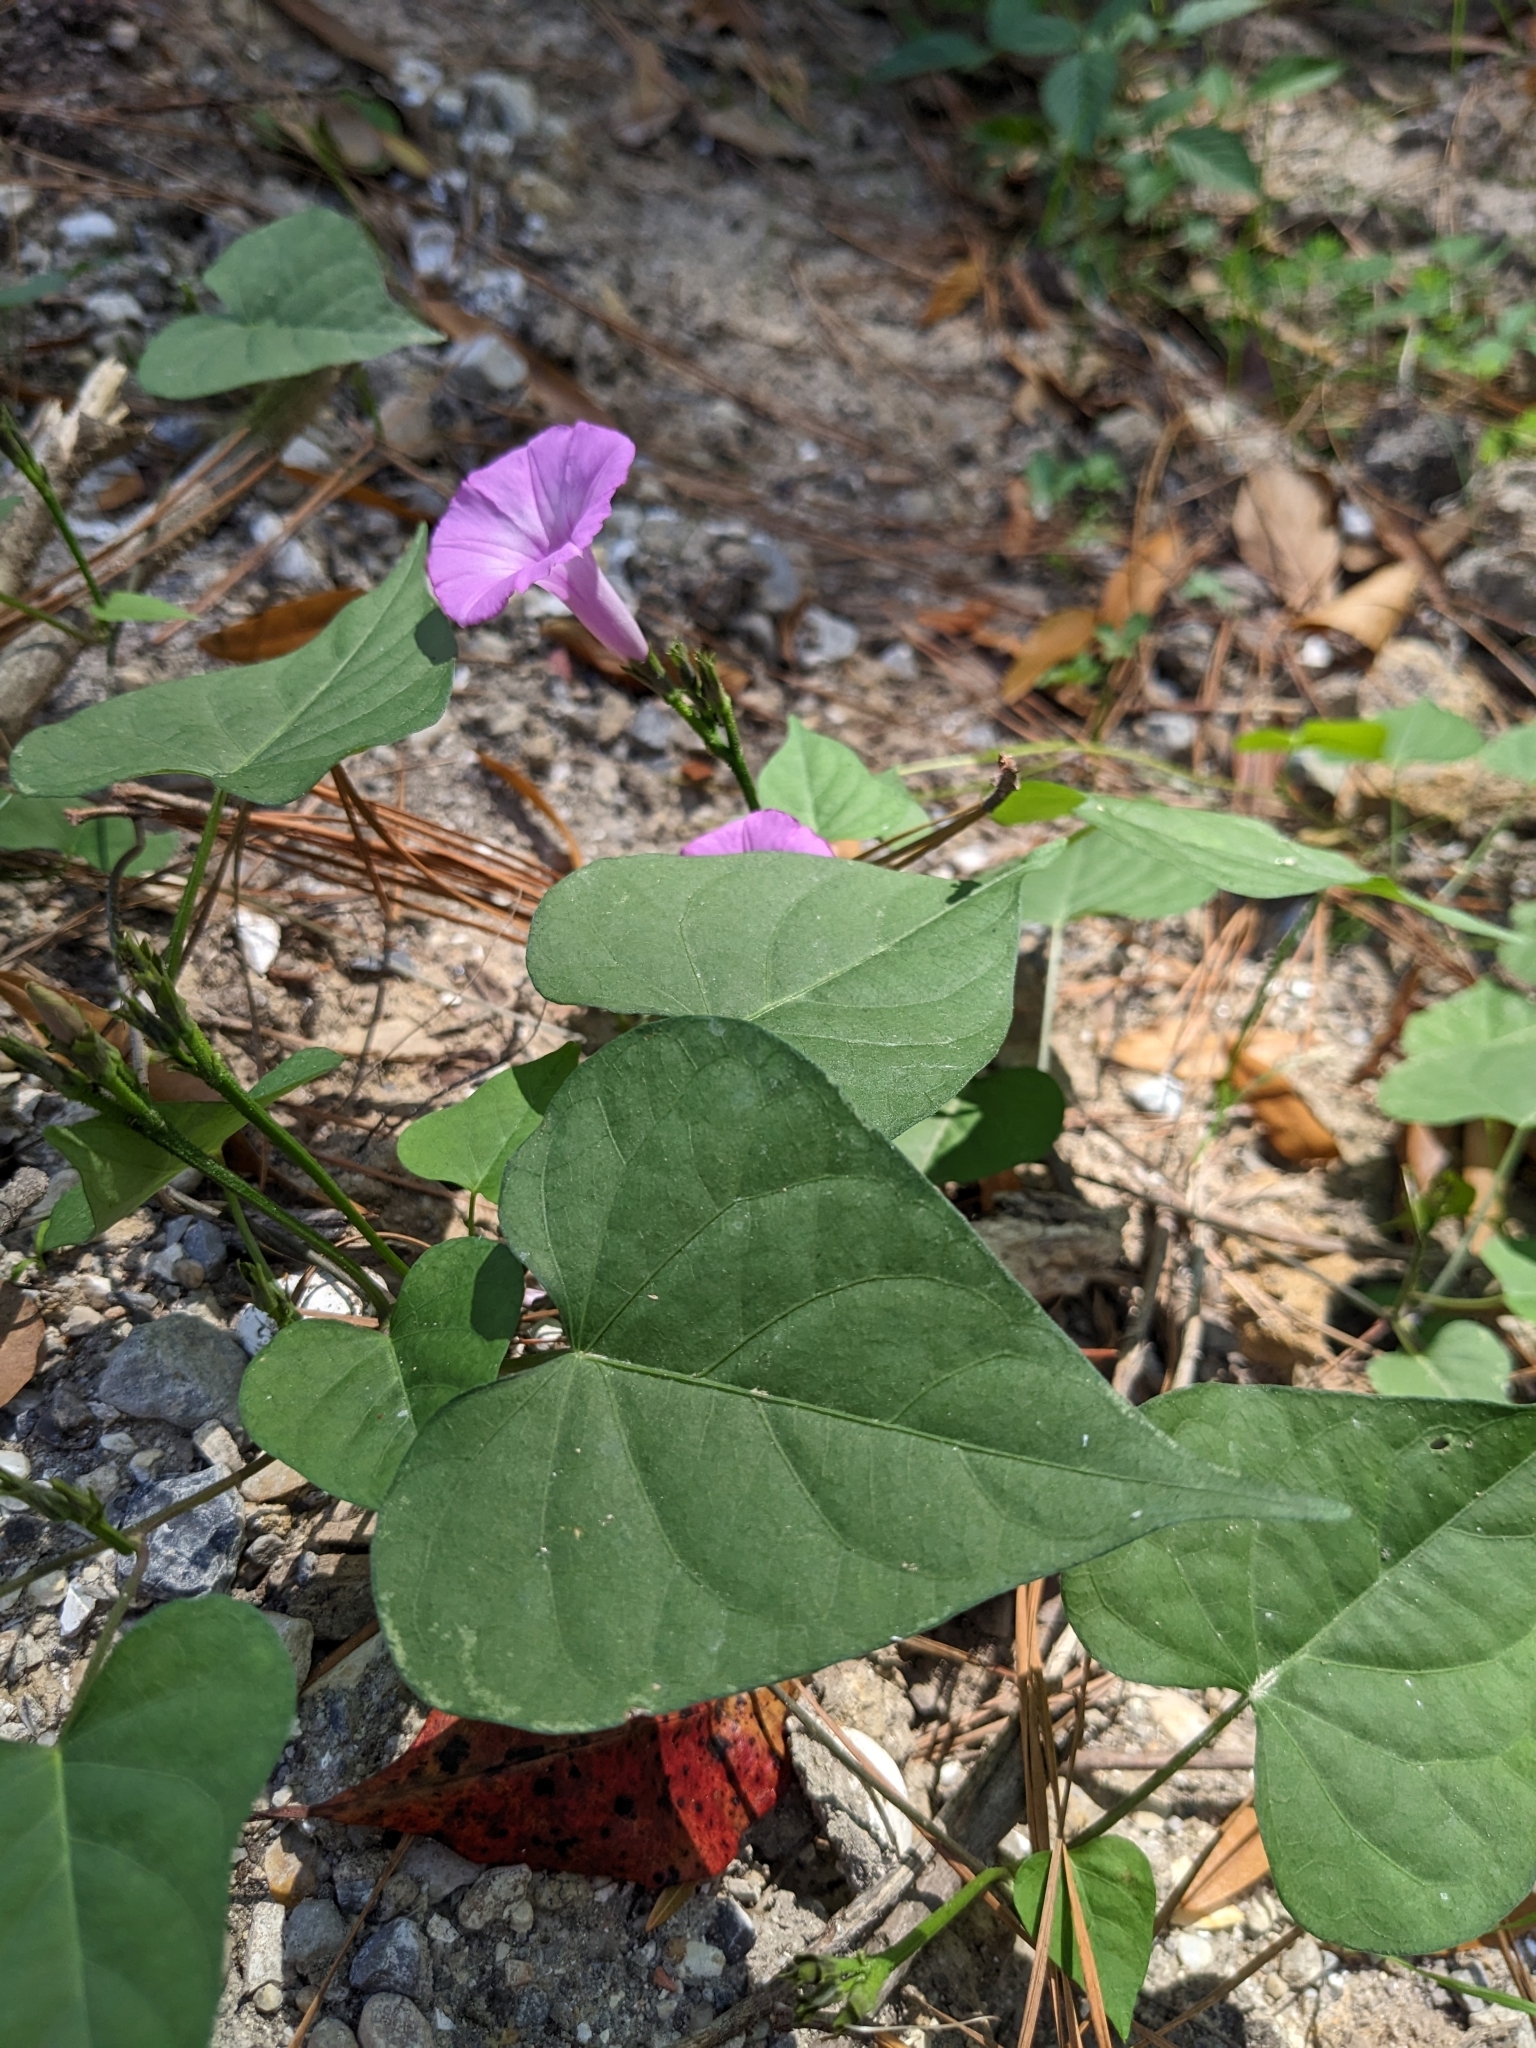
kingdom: Plantae
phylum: Tracheophyta
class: Magnoliopsida
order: Solanales
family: Convolvulaceae
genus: Ipomoea
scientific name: Ipomoea cordatotriloba
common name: Cotton morning glory
